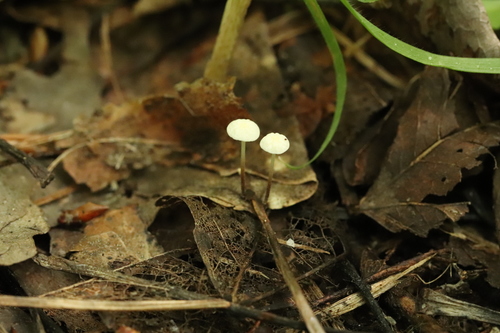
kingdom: Fungi
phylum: Basidiomycota
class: Agaricomycetes
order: Agaricales
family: Marasmiaceae
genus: Marasmius
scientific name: Marasmius epiphyllus
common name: Leaf parachute
